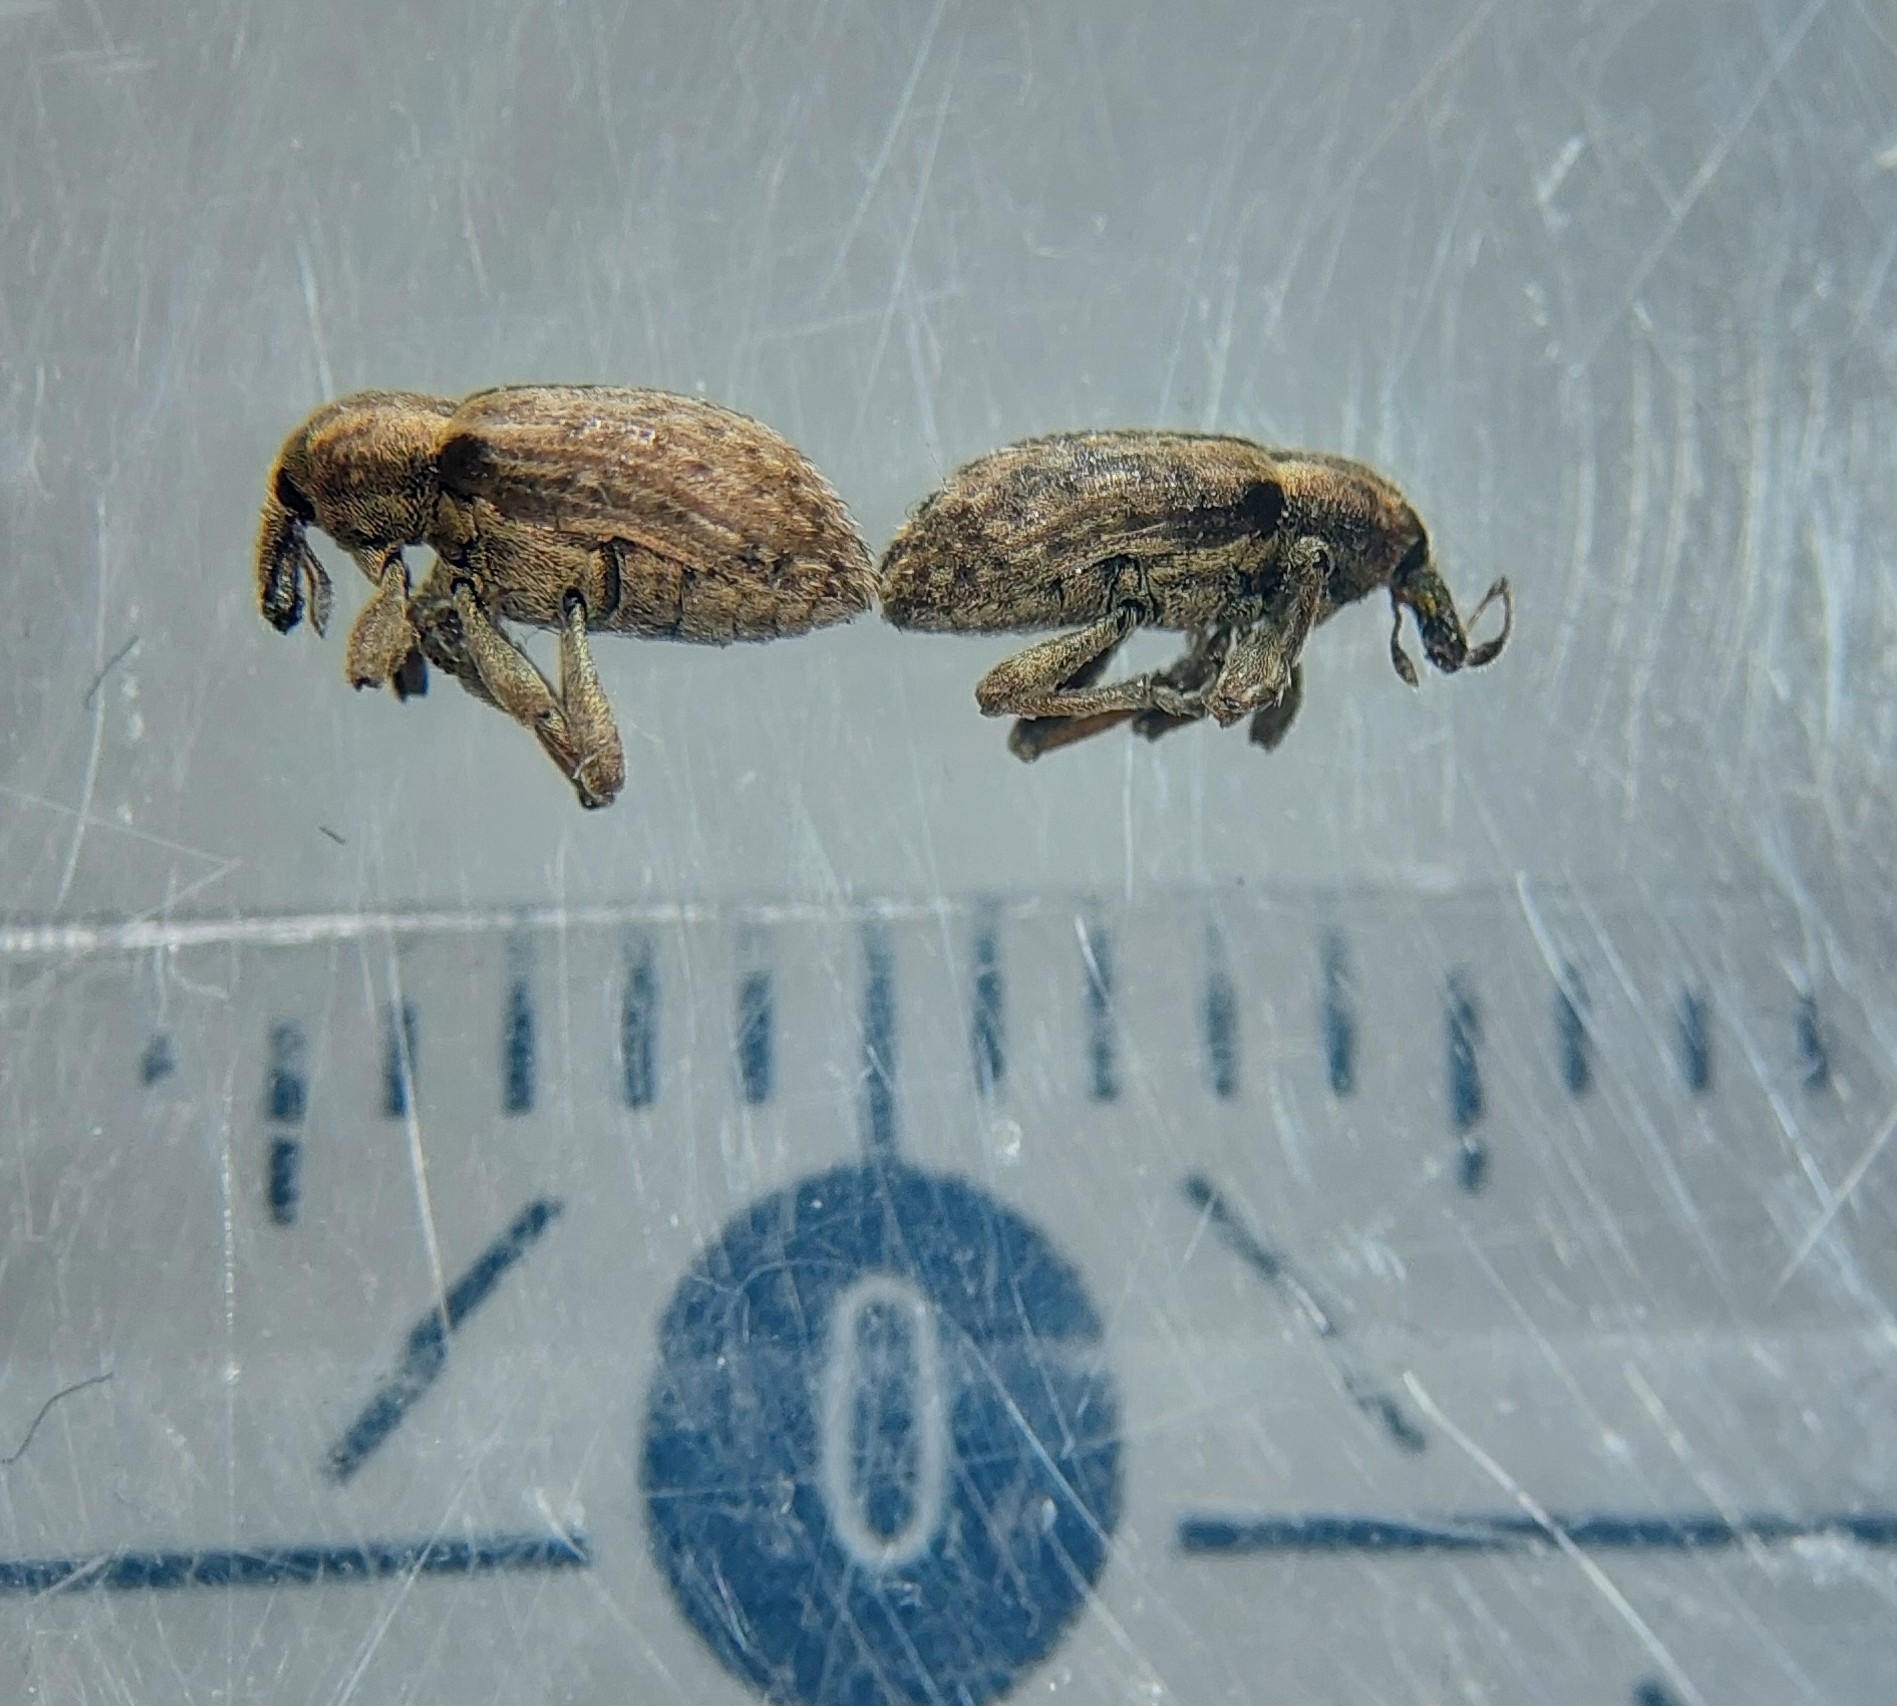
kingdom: Animalia
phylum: Arthropoda
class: Insecta
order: Coleoptera
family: Curculionidae
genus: Hypera
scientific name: Hypera postica
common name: Weevil
